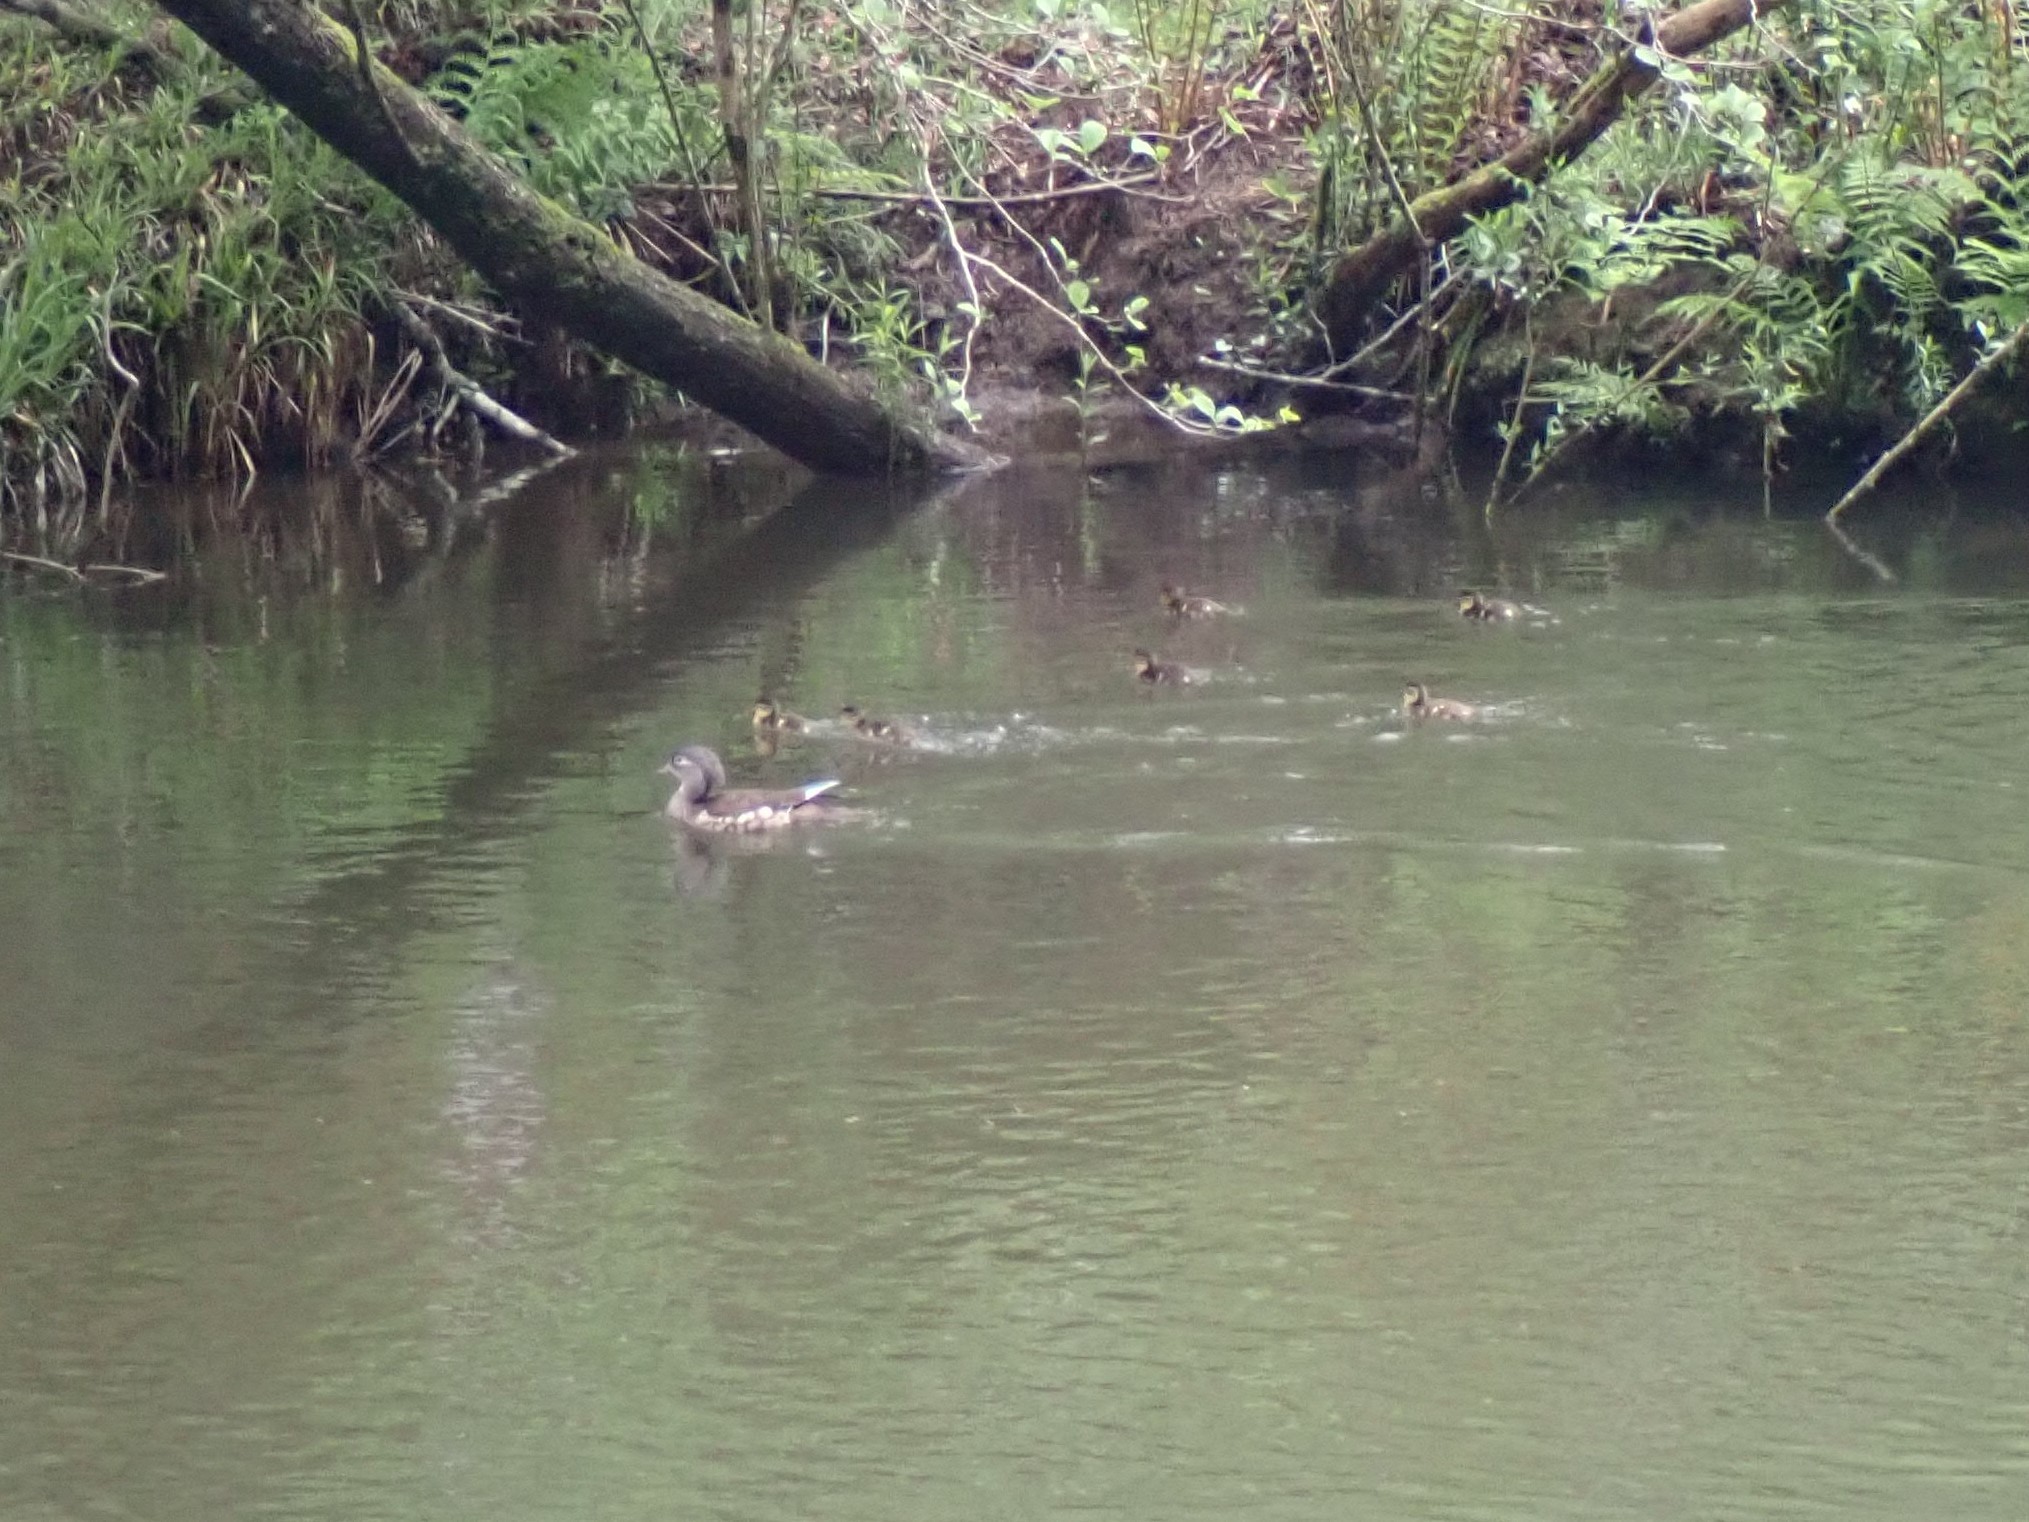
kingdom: Animalia
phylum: Chordata
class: Aves
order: Anseriformes
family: Anatidae
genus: Aix
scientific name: Aix galericulata
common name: Mandarin duck
